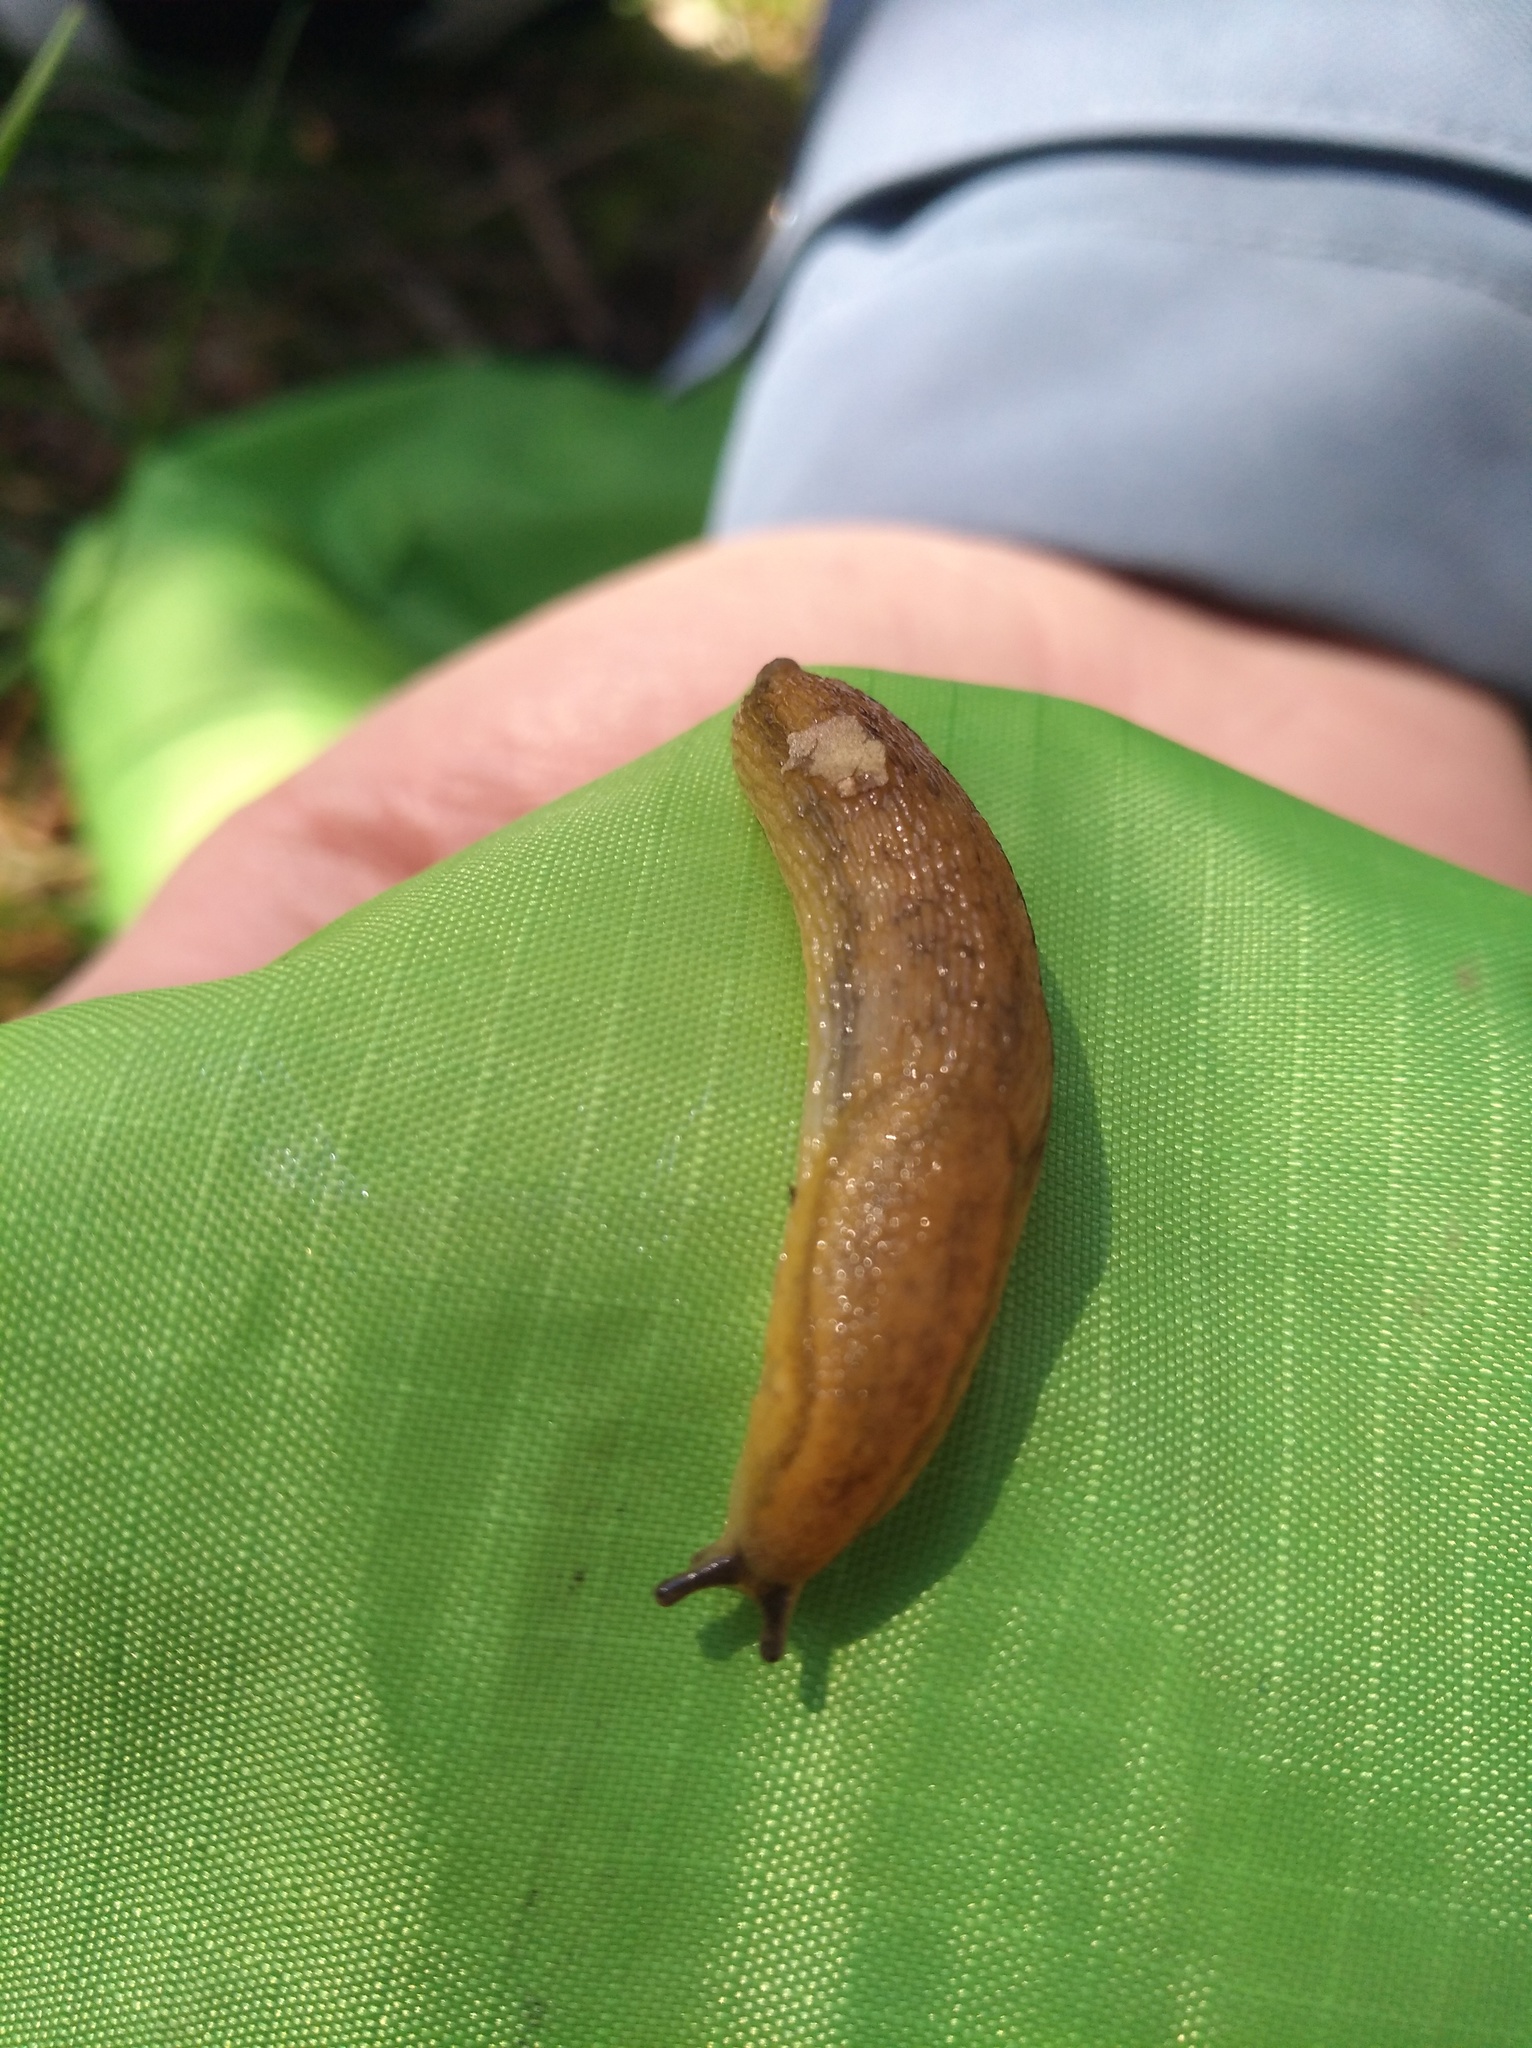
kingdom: Animalia
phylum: Mollusca
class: Gastropoda
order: Stylommatophora
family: Arionidae
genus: Arion
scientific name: Arion subfuscus
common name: Dusky arion
